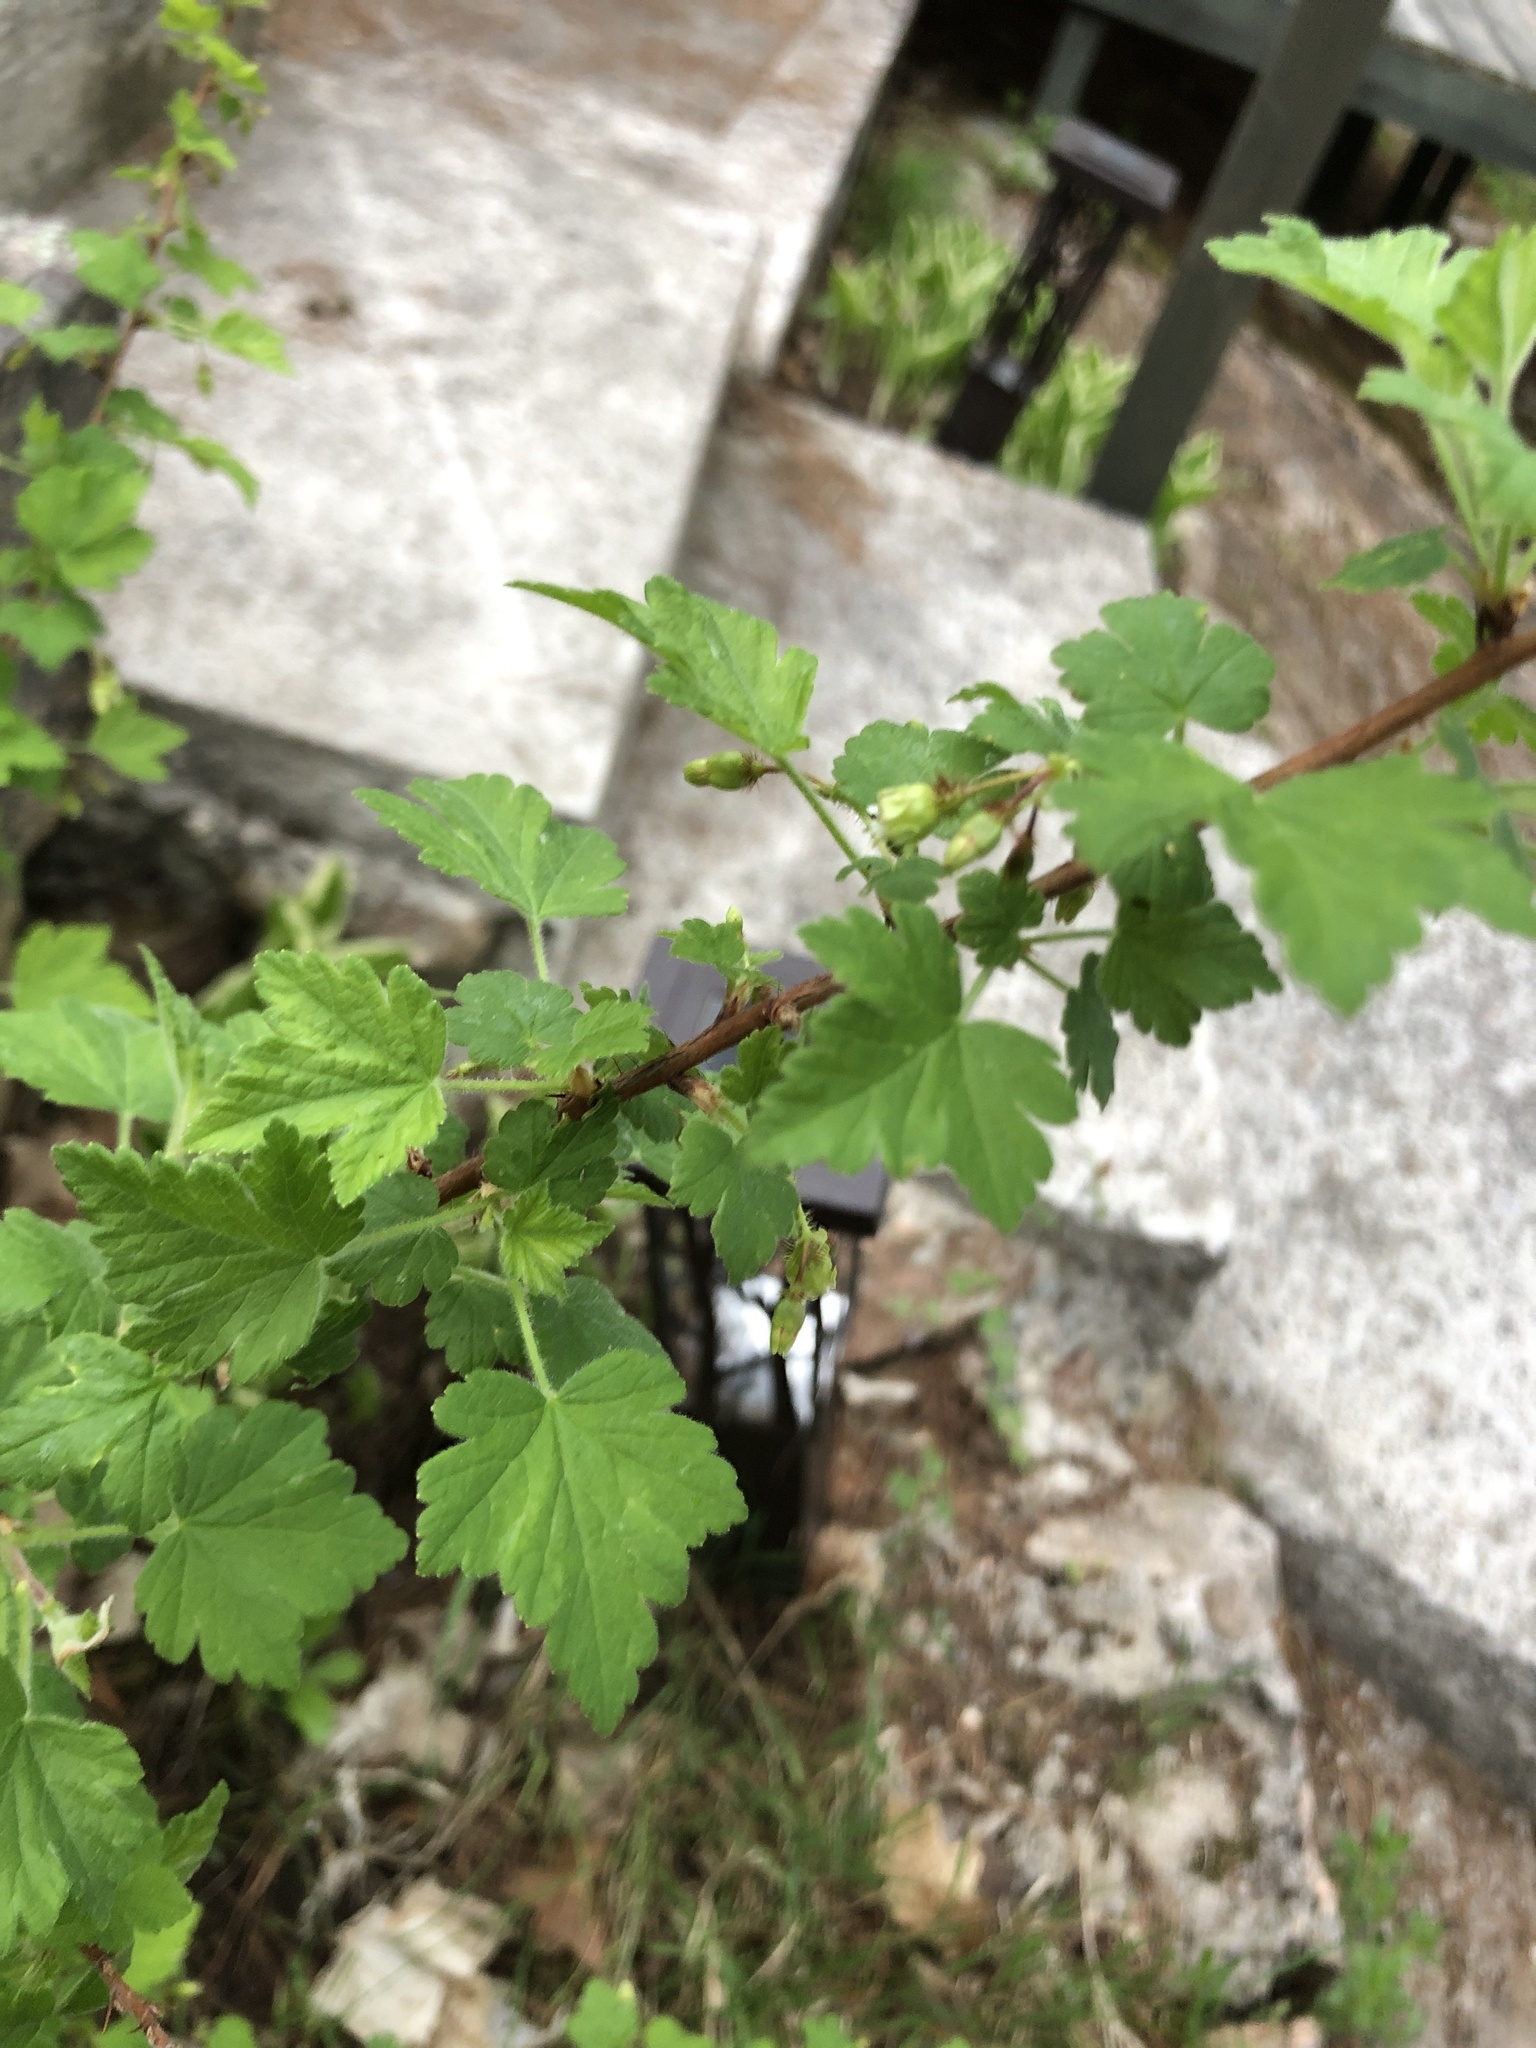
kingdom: Plantae
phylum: Tracheophyta
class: Magnoliopsida
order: Saxifragales
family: Grossulariaceae
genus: Ribes
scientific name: Ribes cynosbati
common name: American gooseberry
